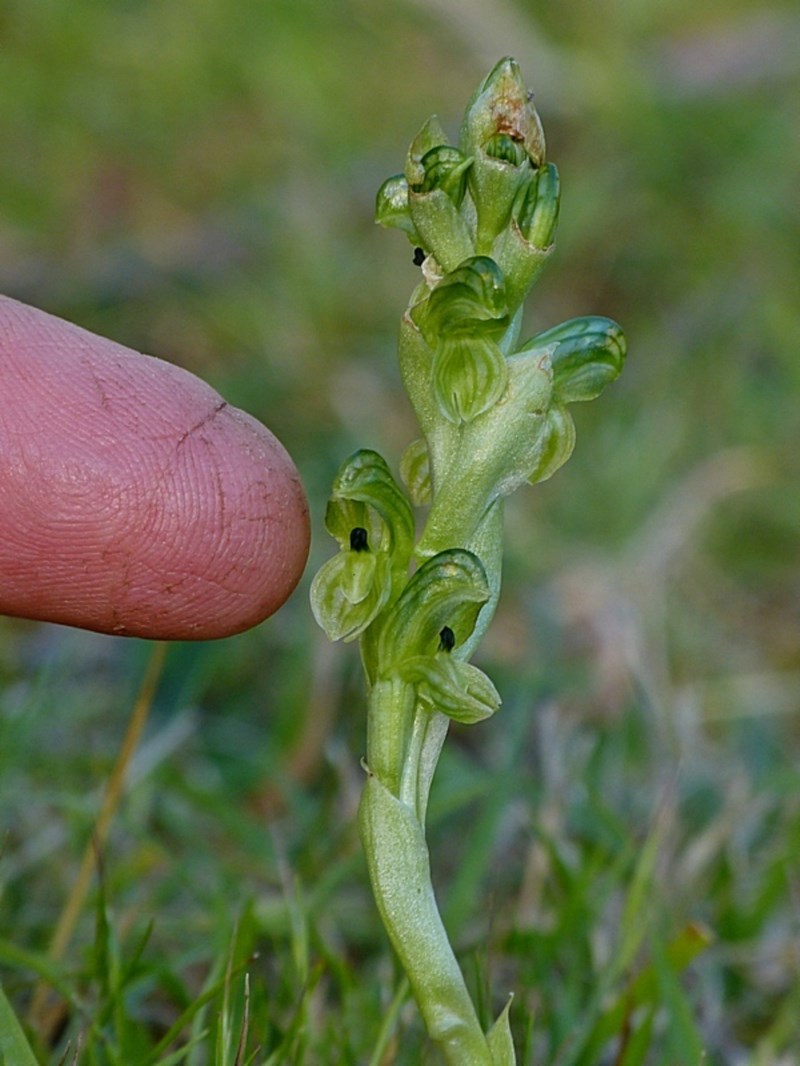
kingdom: Plantae
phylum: Tracheophyta
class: Liliopsida
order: Asparagales
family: Orchidaceae
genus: Pterostylis
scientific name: Pterostylis bicolor
